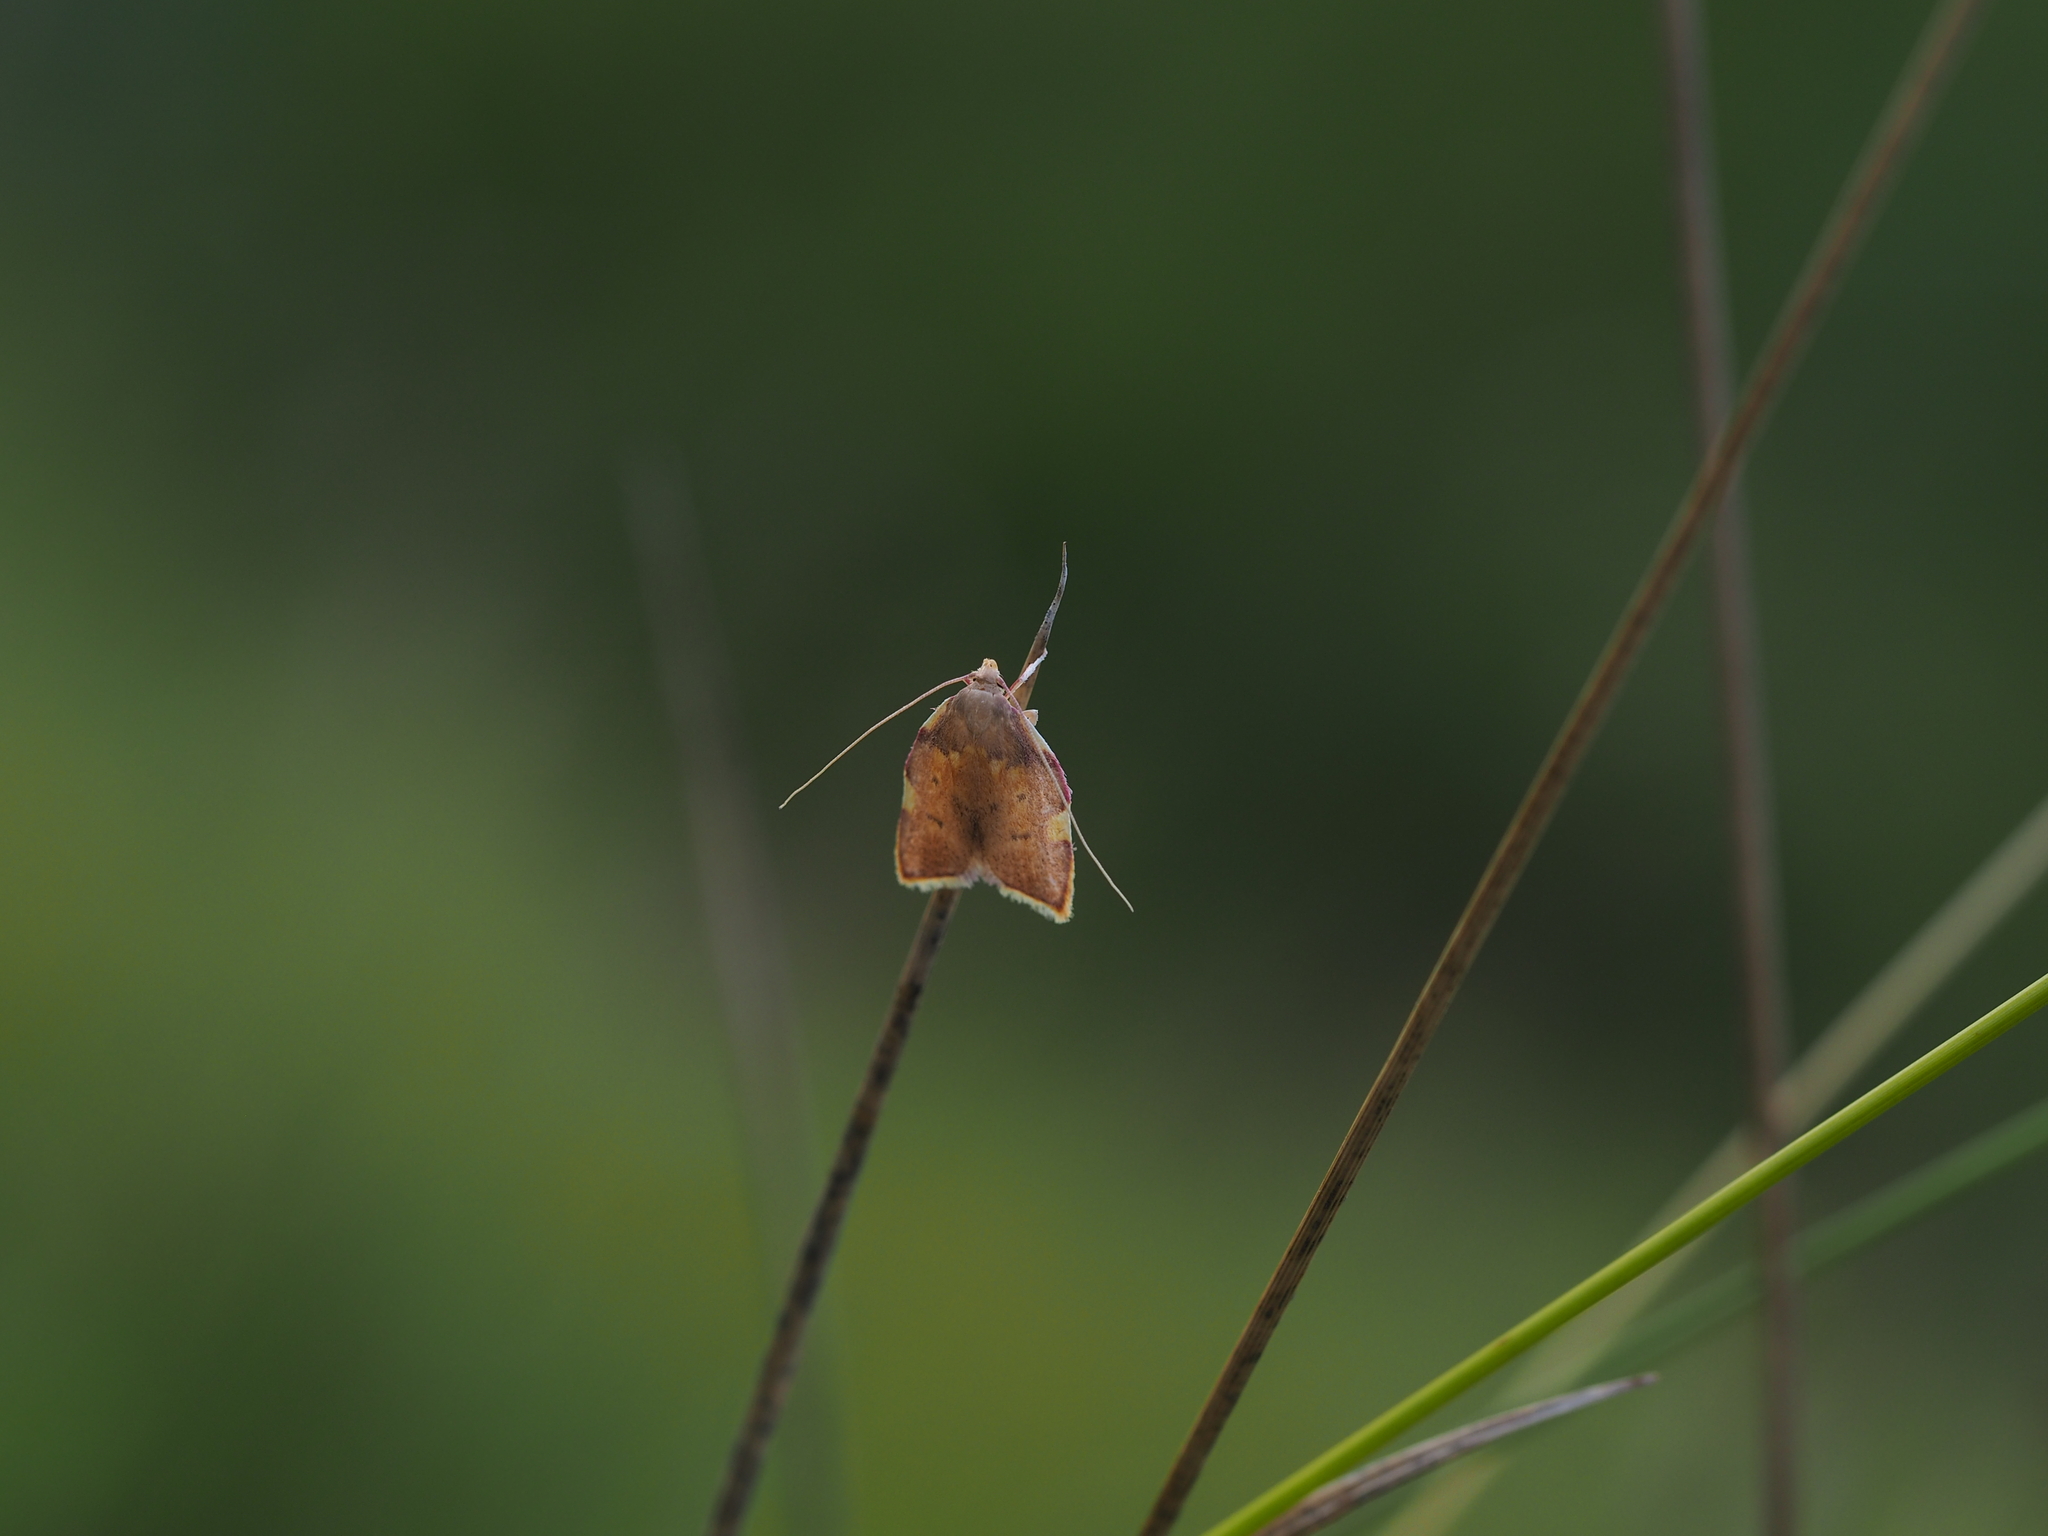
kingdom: Animalia
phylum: Arthropoda
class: Insecta
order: Lepidoptera
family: Peleopodidae
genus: Carcina
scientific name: Carcina quercana
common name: Moth
